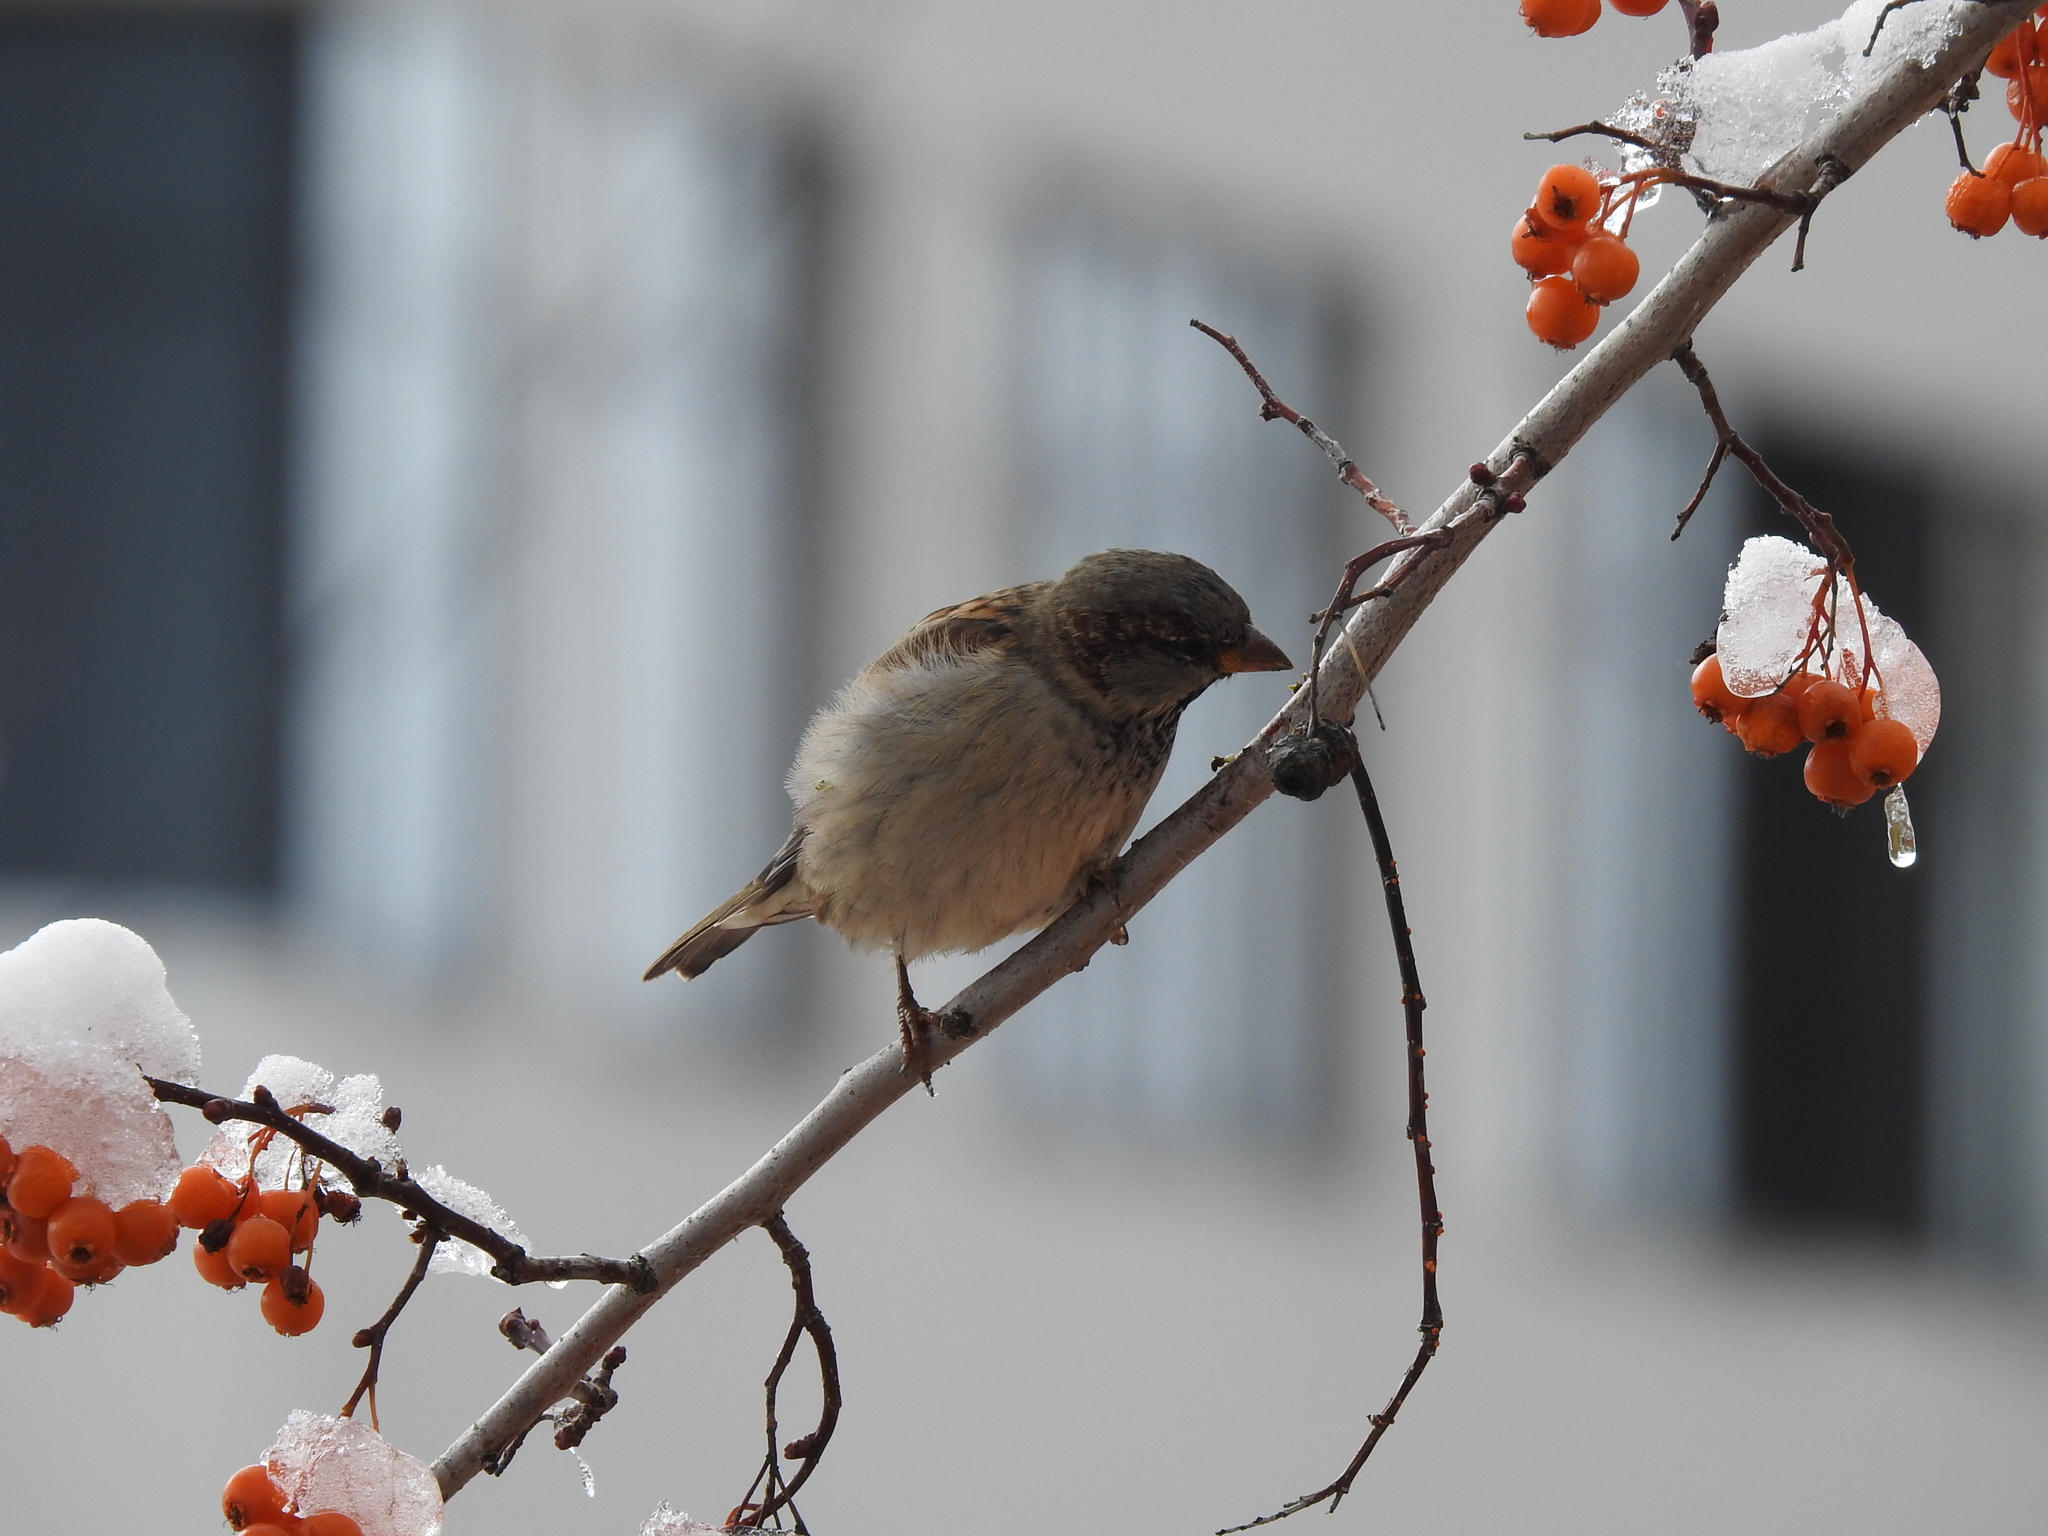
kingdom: Animalia
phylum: Chordata
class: Aves
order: Passeriformes
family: Passeridae
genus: Passer
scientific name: Passer domesticus
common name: House sparrow
